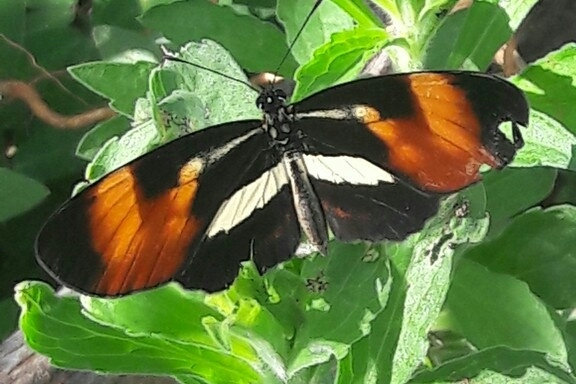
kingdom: Animalia
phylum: Arthropoda
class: Insecta
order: Lepidoptera
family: Nymphalidae
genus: Eresia
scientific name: Eresia lansdorfi
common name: Lansdorf's crescent
